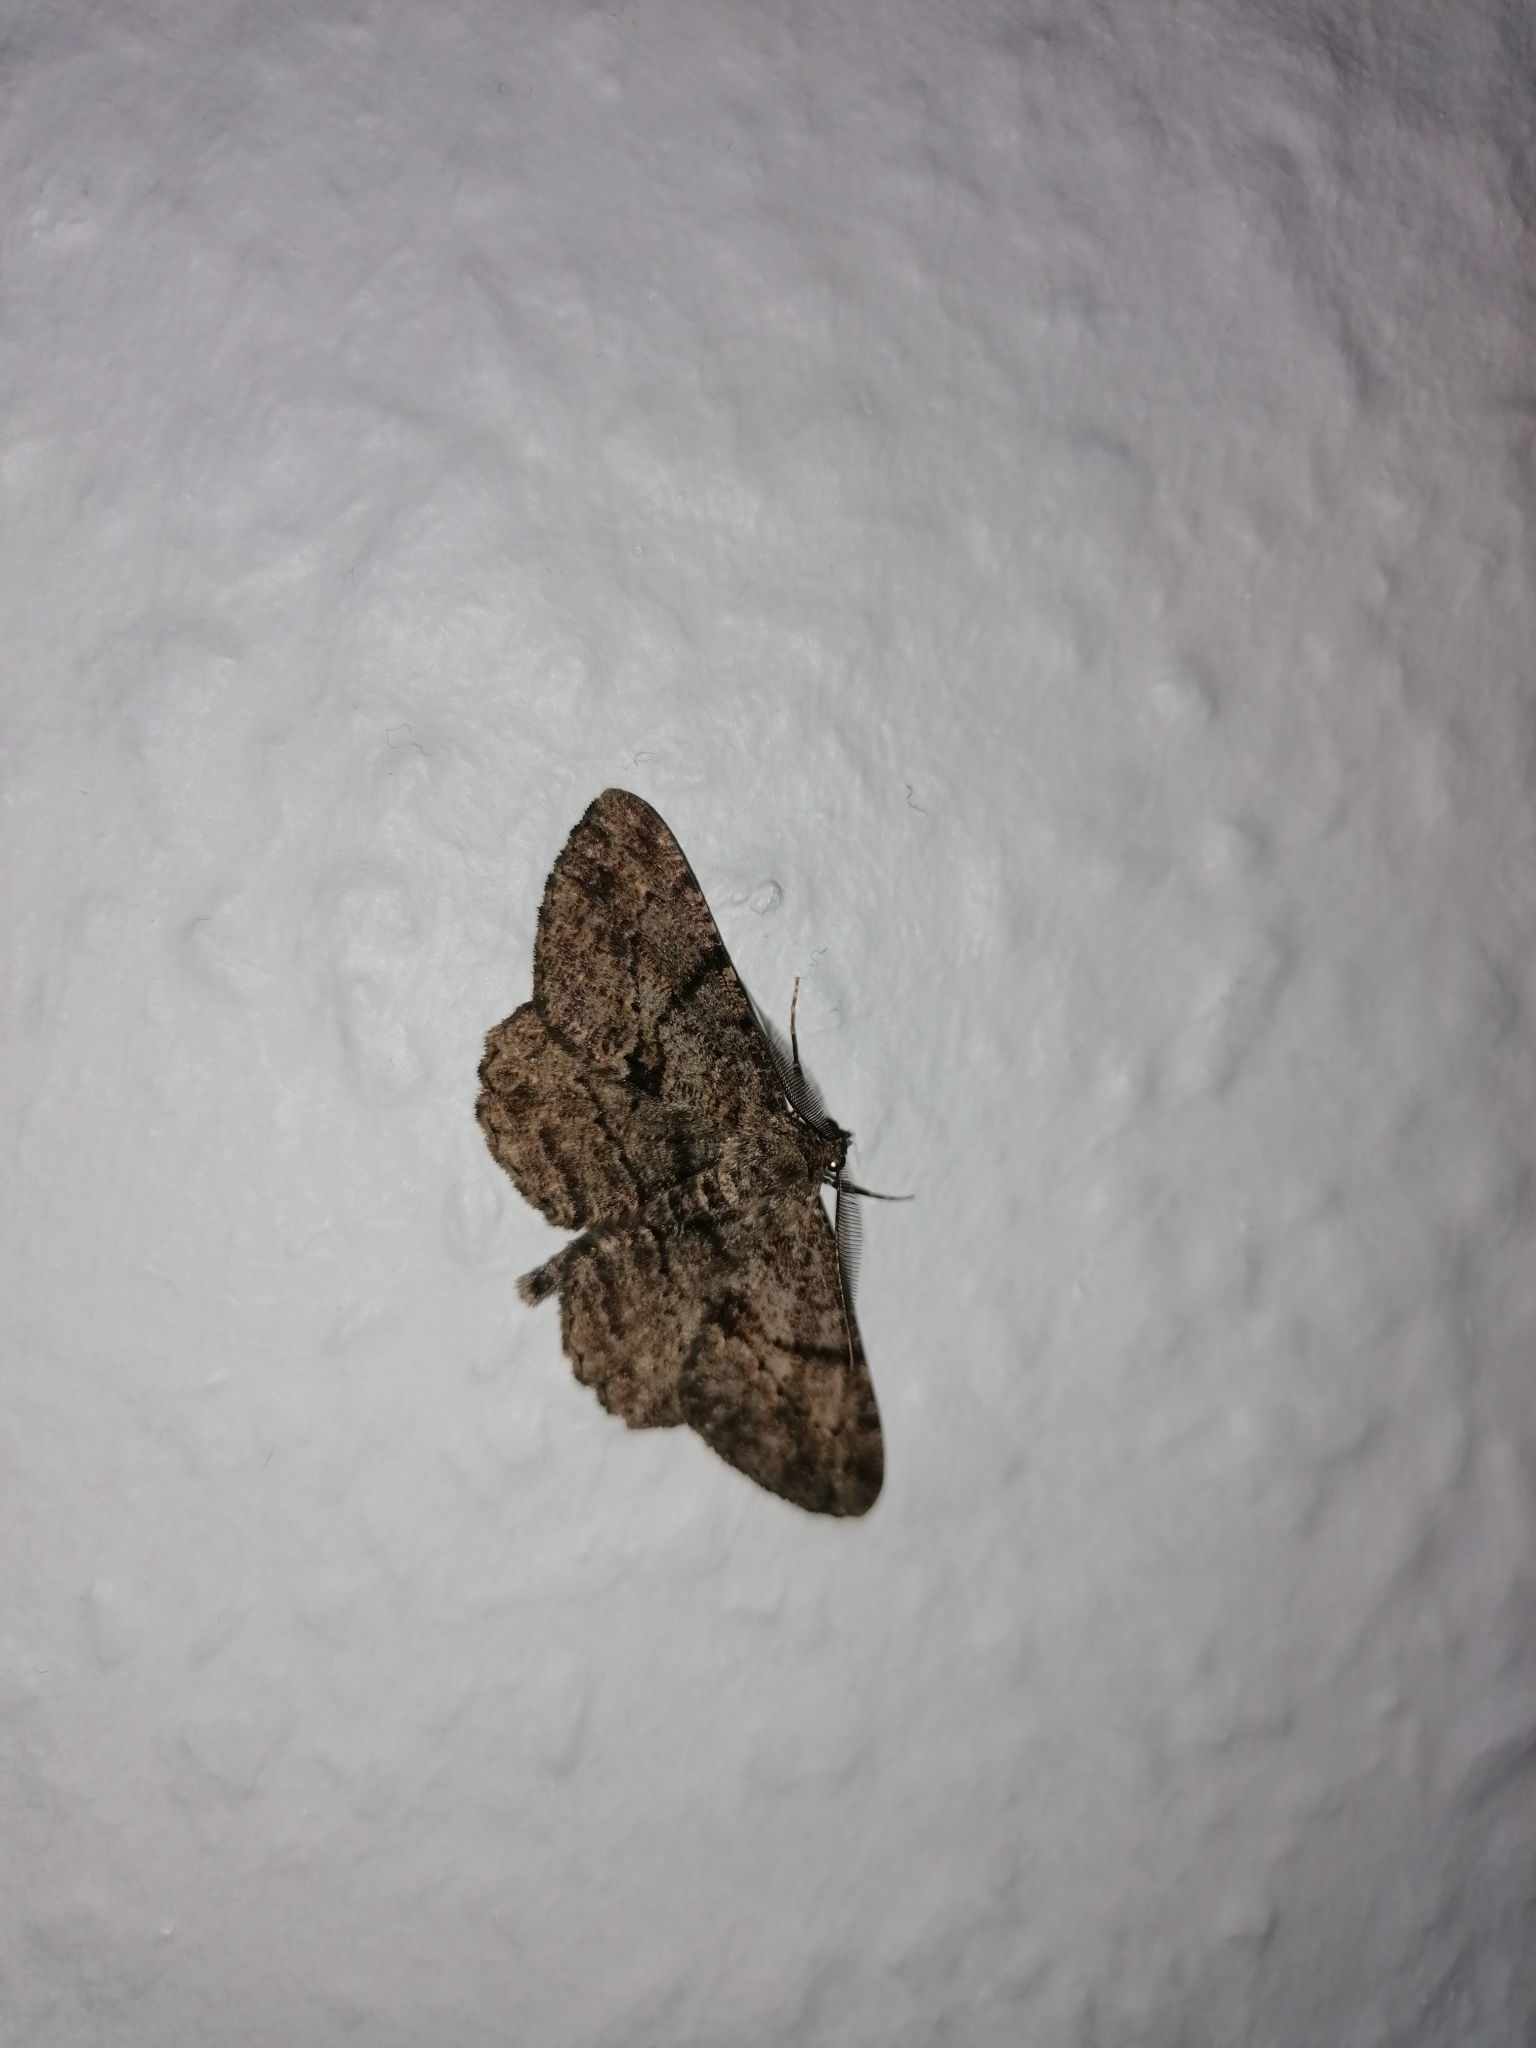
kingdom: Animalia
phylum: Arthropoda
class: Insecta
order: Lepidoptera
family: Geometridae
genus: Peribatodes
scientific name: Peribatodes rhomboidaria
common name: Willow beauty
